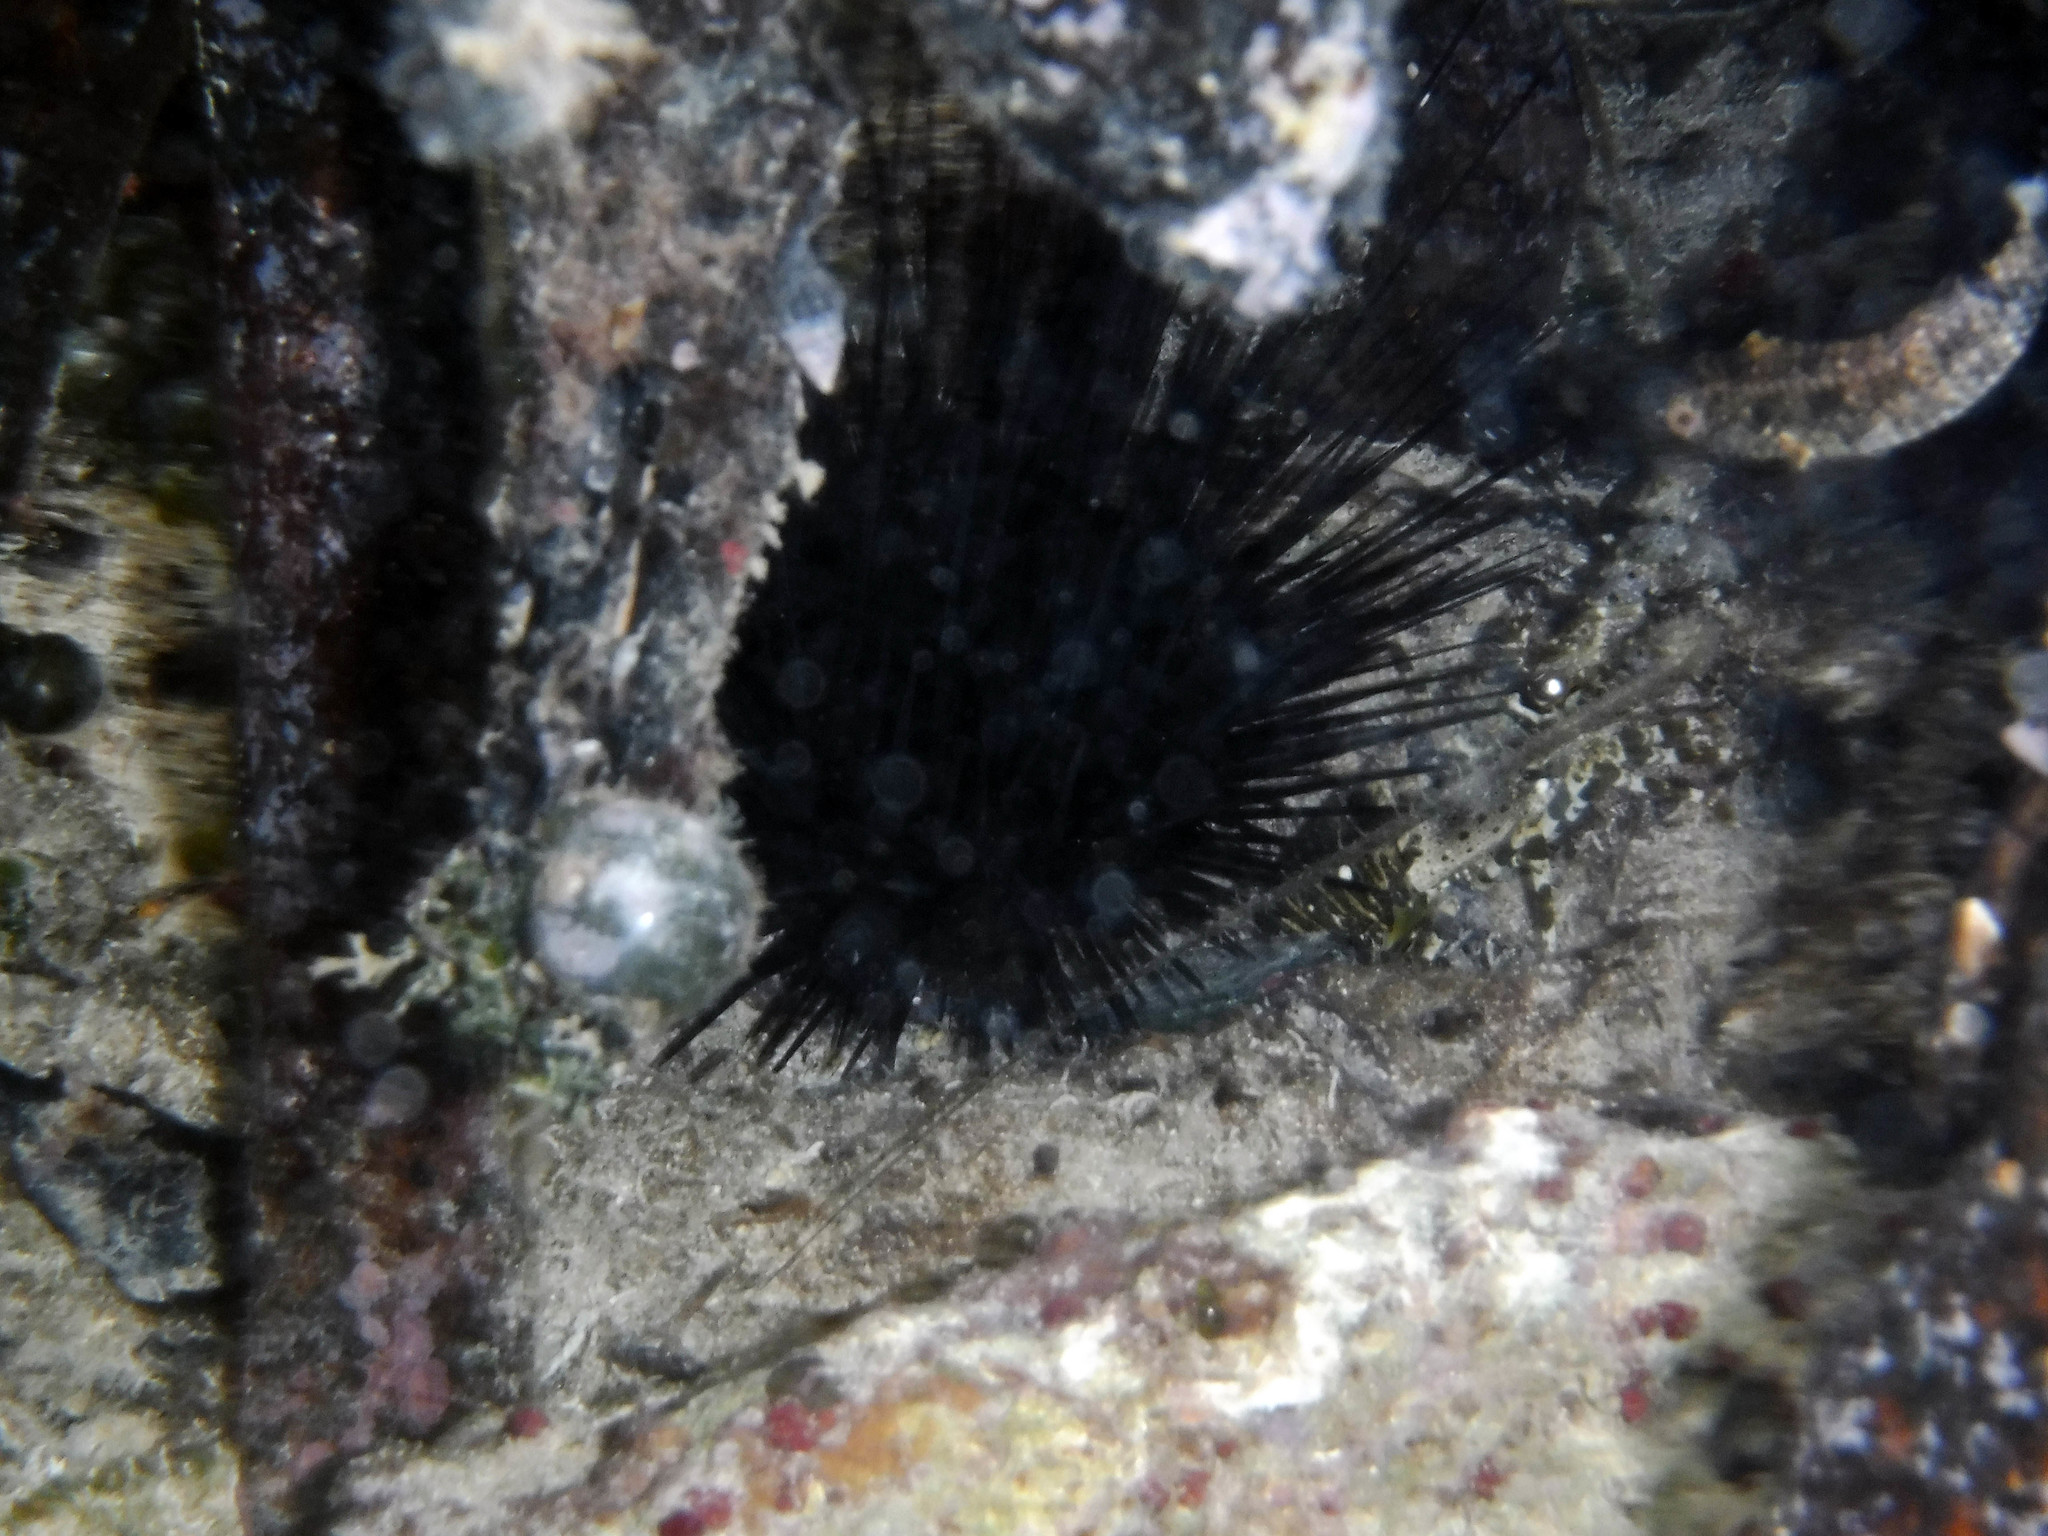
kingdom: Animalia
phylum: Echinodermata
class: Echinoidea
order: Camarodonta
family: Echinometridae
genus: Echinometra
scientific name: Echinometra lucunter
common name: Rock urchin
